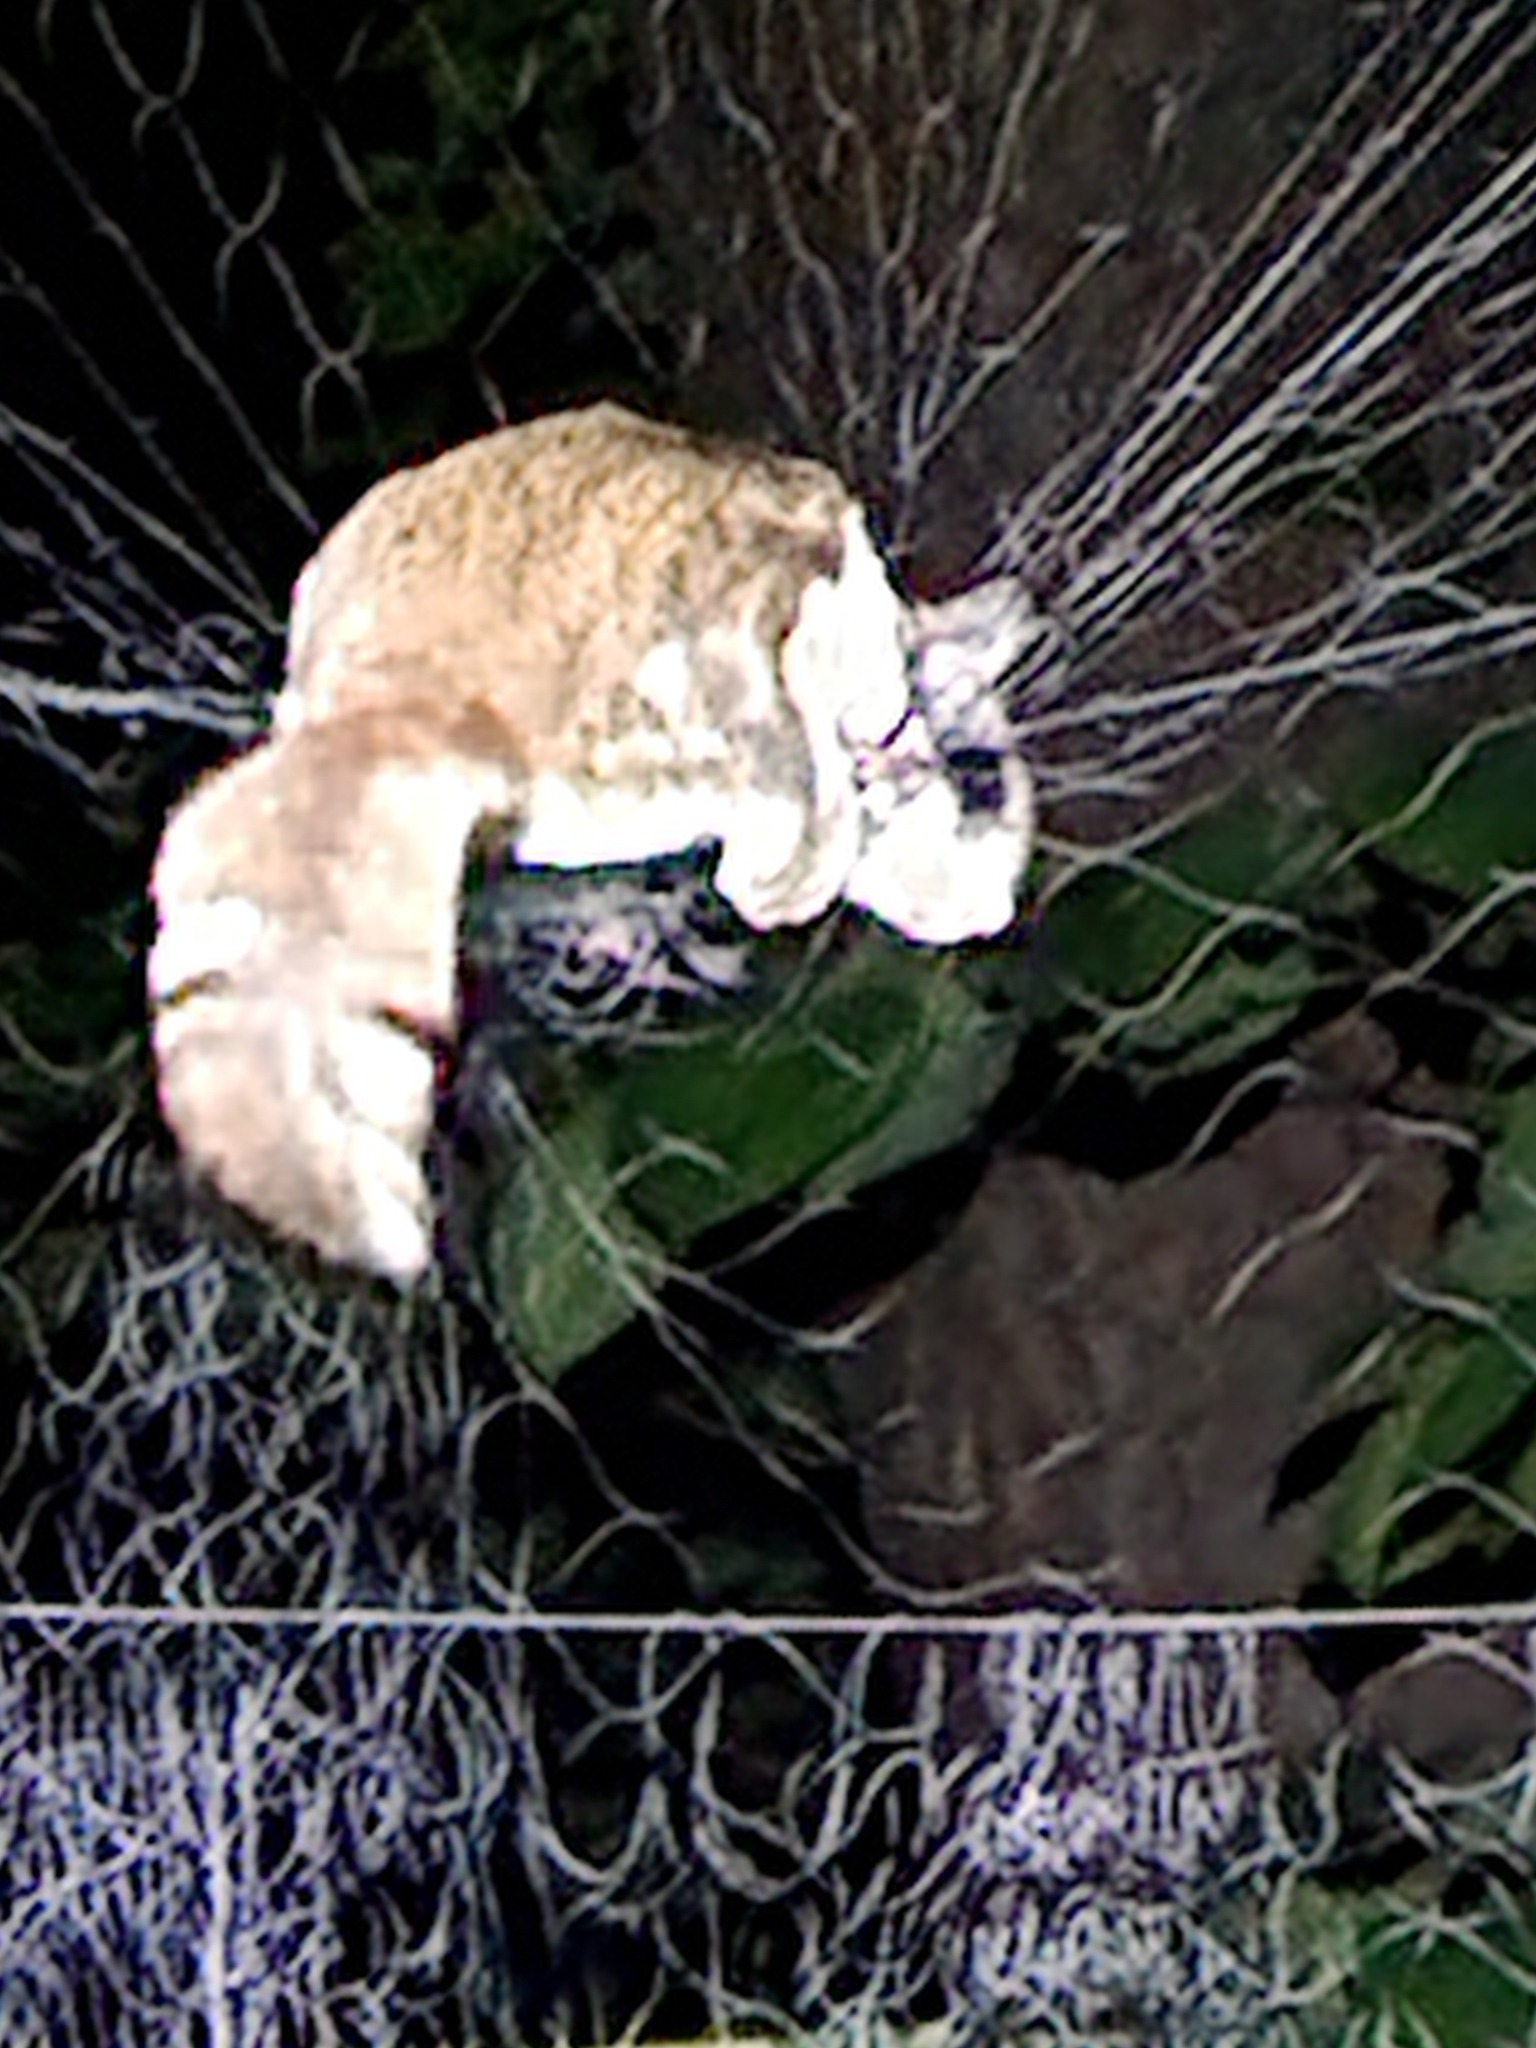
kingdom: Animalia
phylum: Chordata
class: Mammalia
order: Rodentia
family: Sciuridae
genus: Glaucomys
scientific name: Glaucomys volans
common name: Southern flying squirrel
